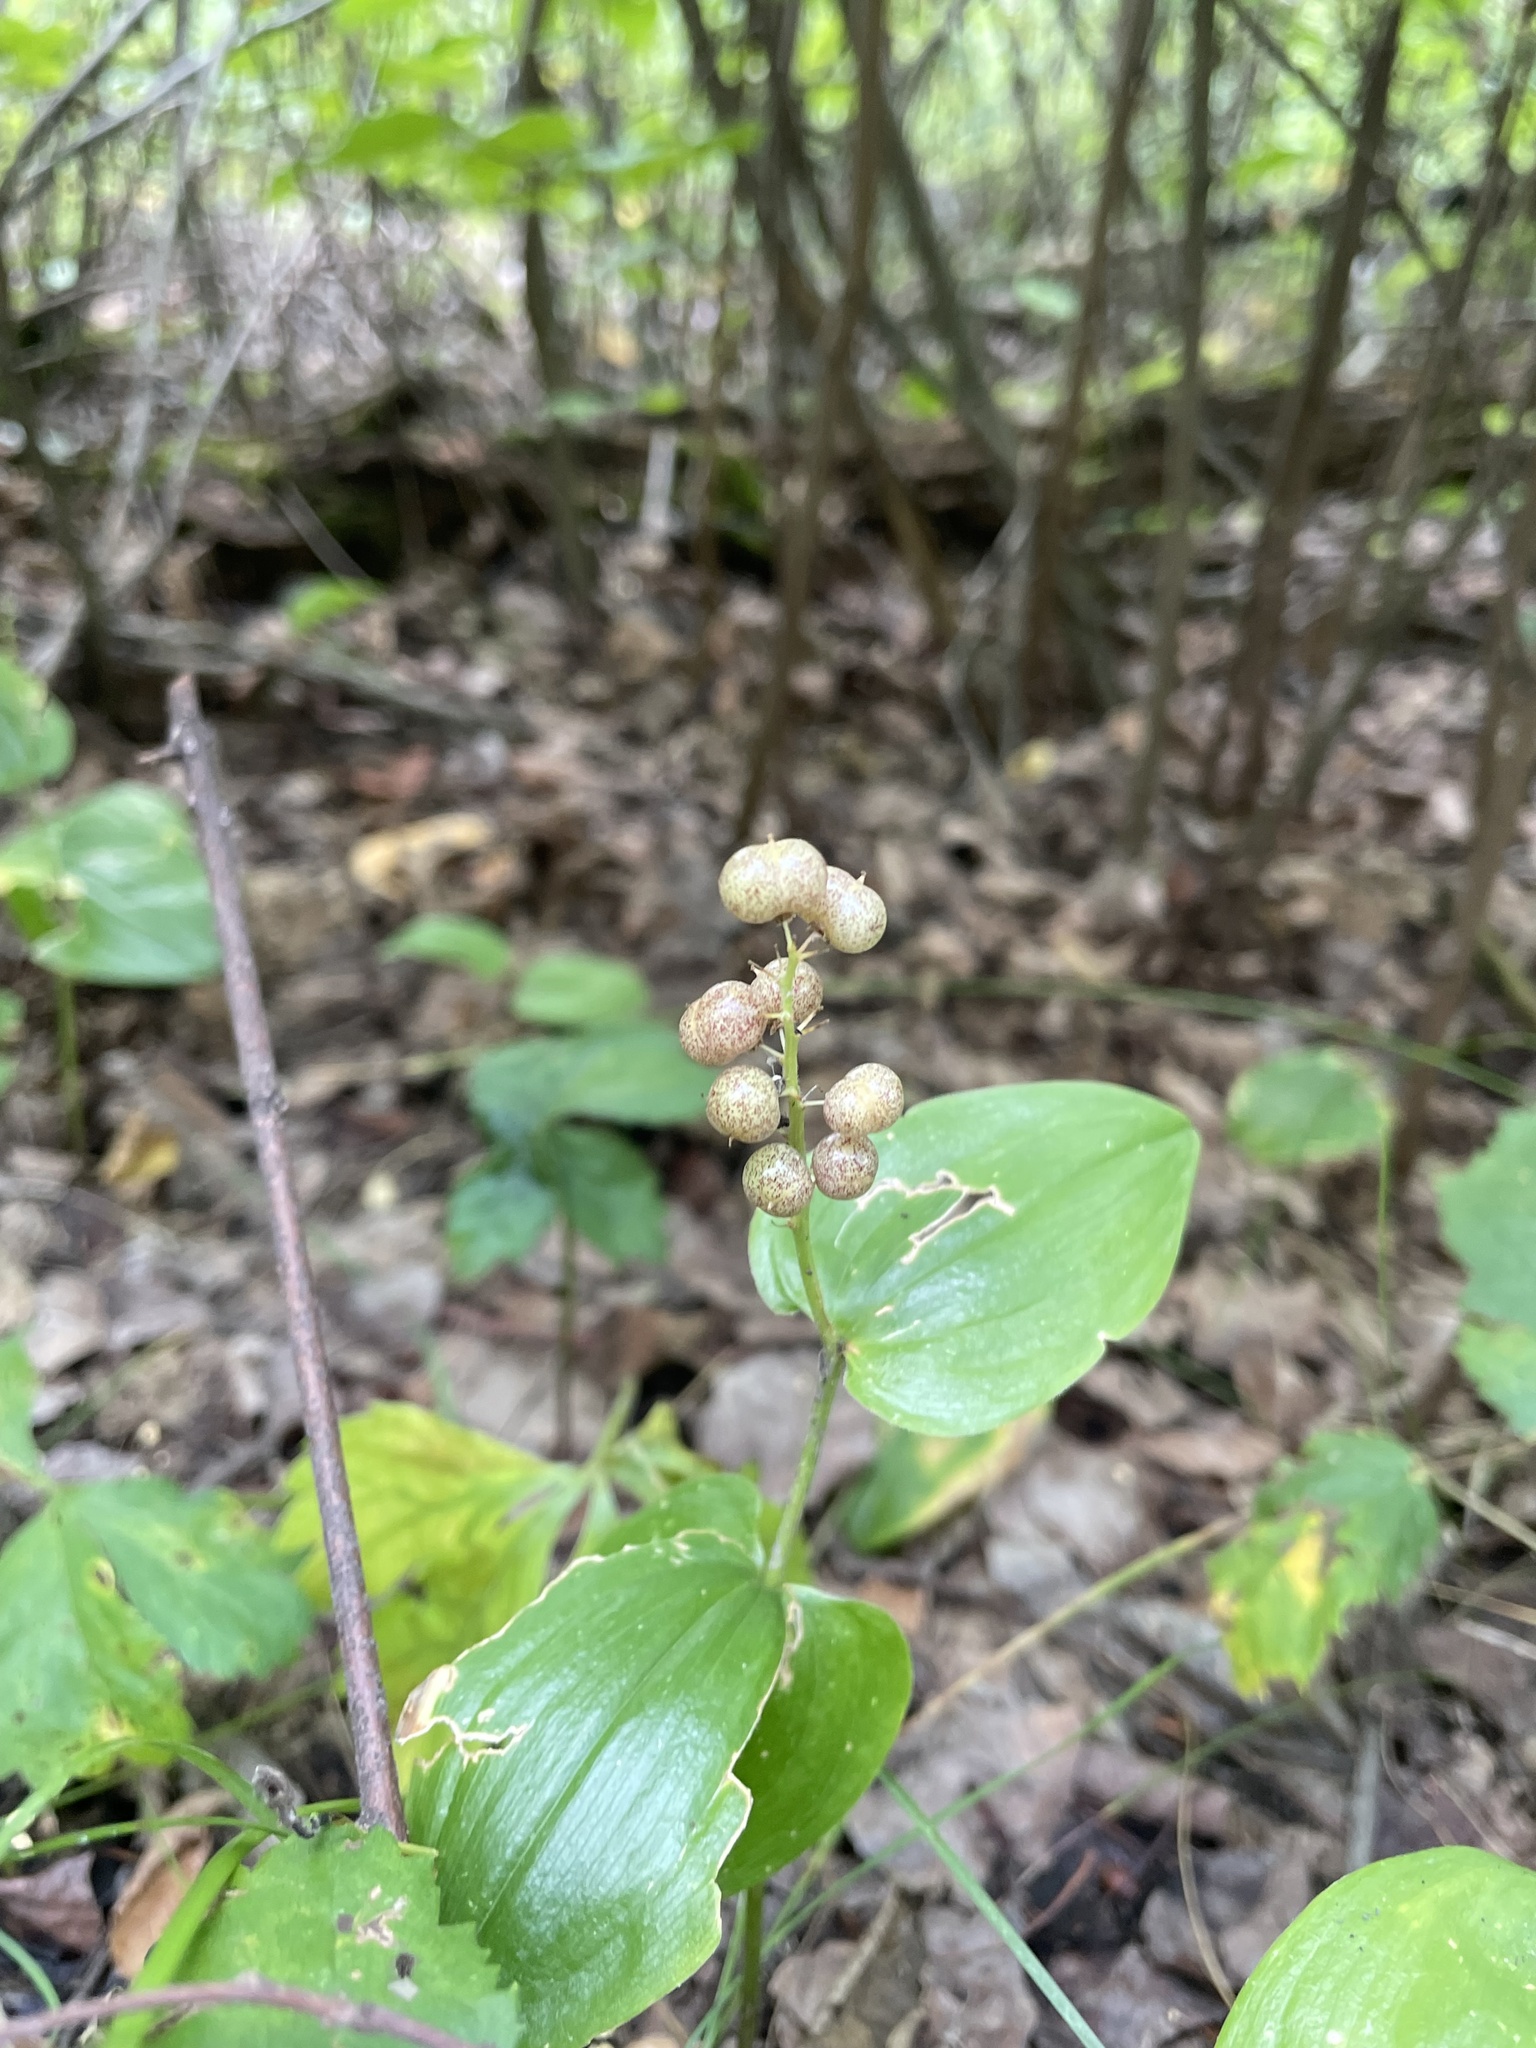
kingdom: Plantae
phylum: Tracheophyta
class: Liliopsida
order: Asparagales
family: Asparagaceae
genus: Maianthemum
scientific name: Maianthemum canadense
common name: False lily-of-the-valley
